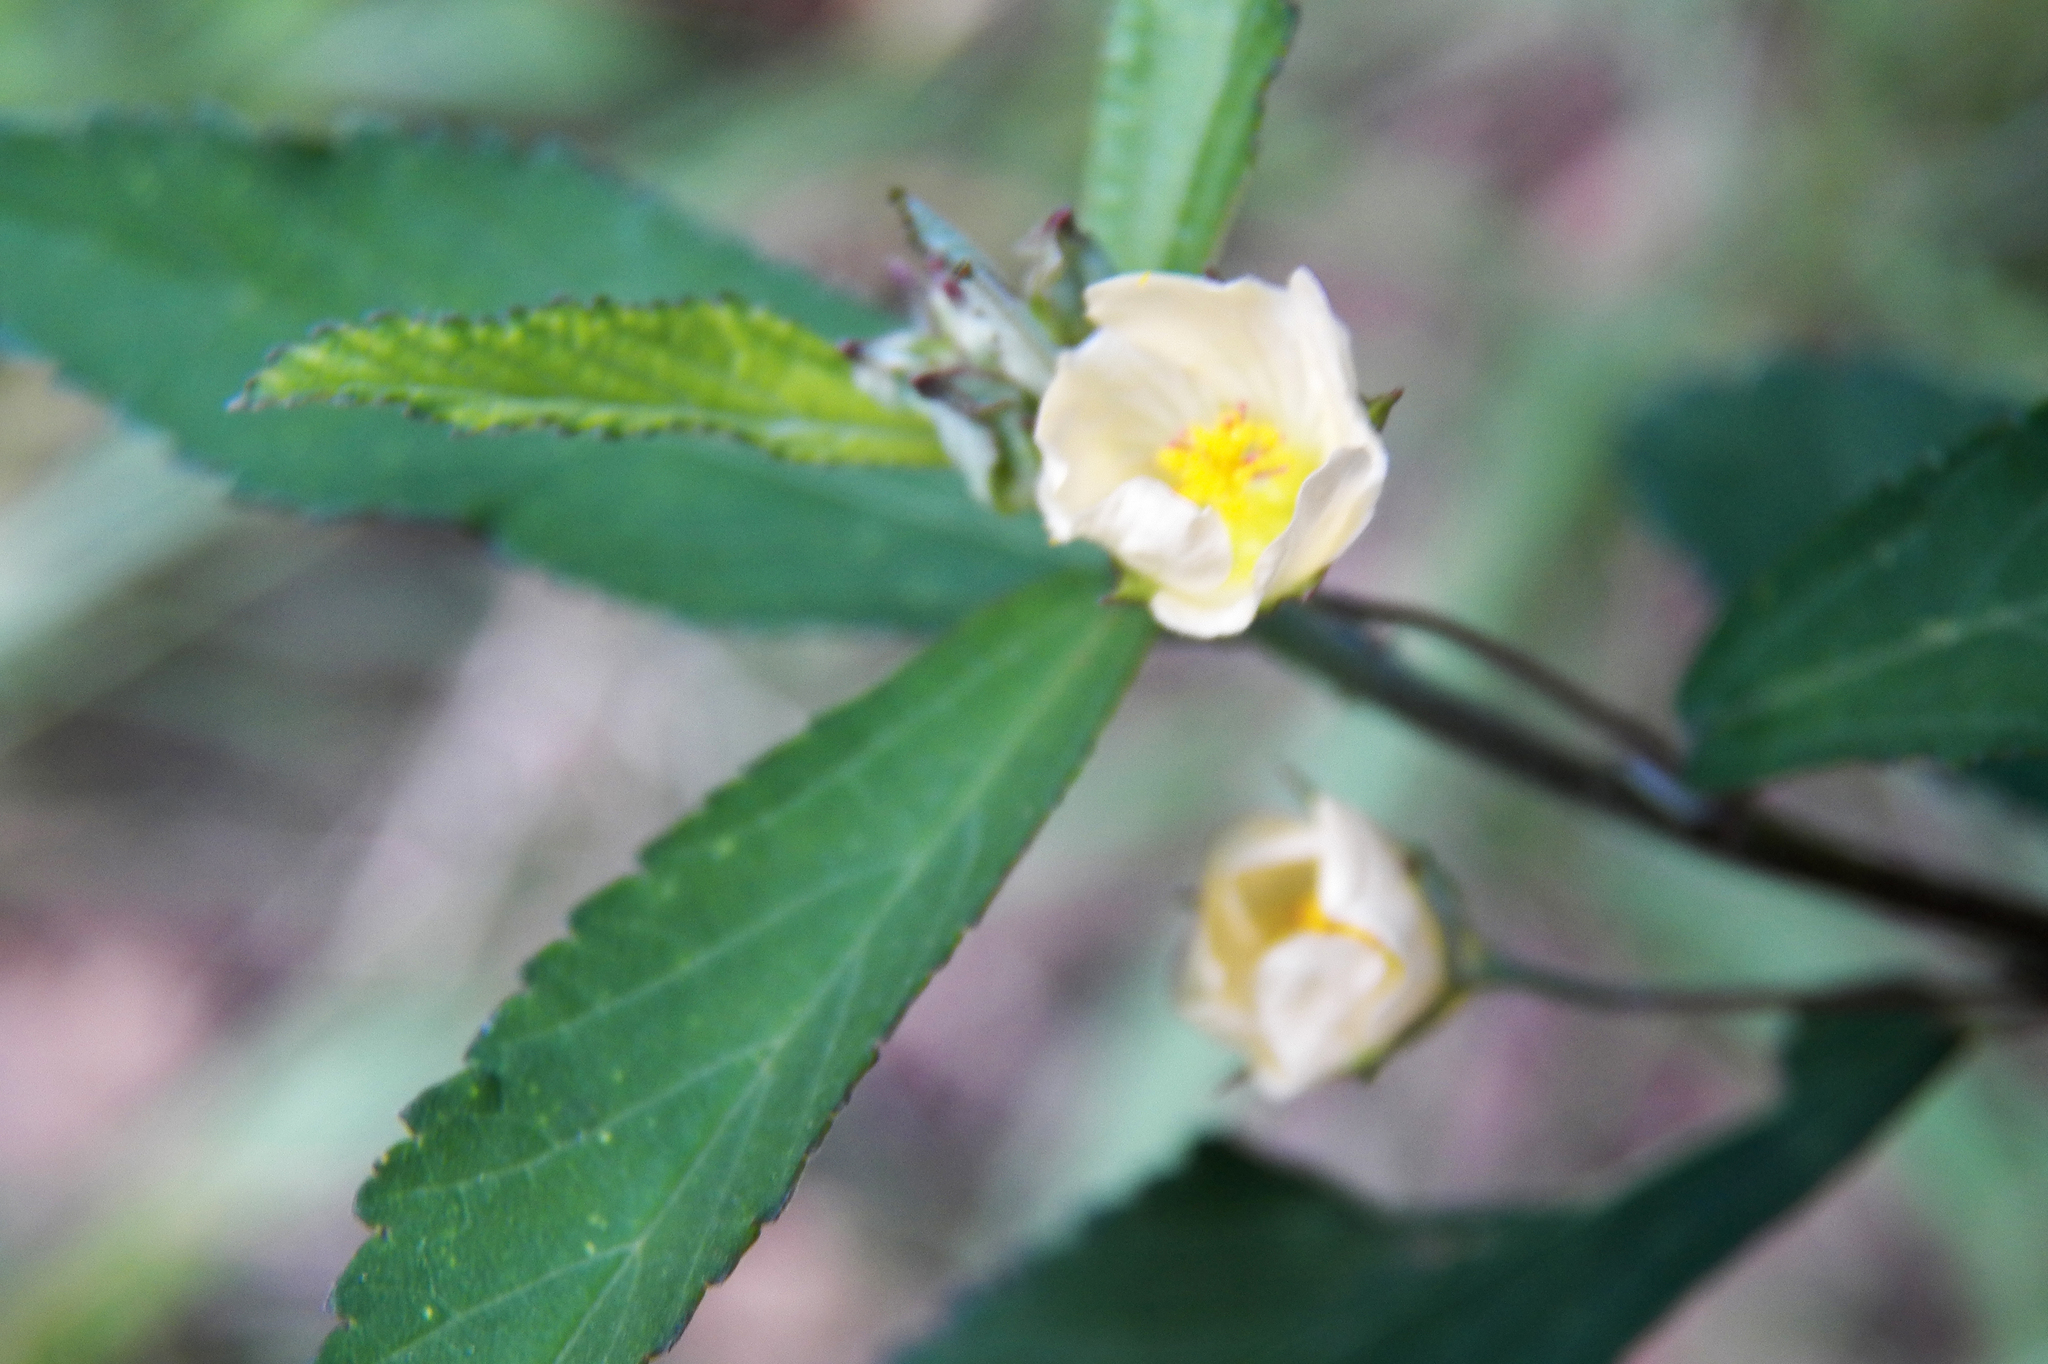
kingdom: Plantae
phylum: Tracheophyta
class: Magnoliopsida
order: Malvales
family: Malvaceae
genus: Sida
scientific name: Sida rhombifolia
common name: Queensland-hemp
